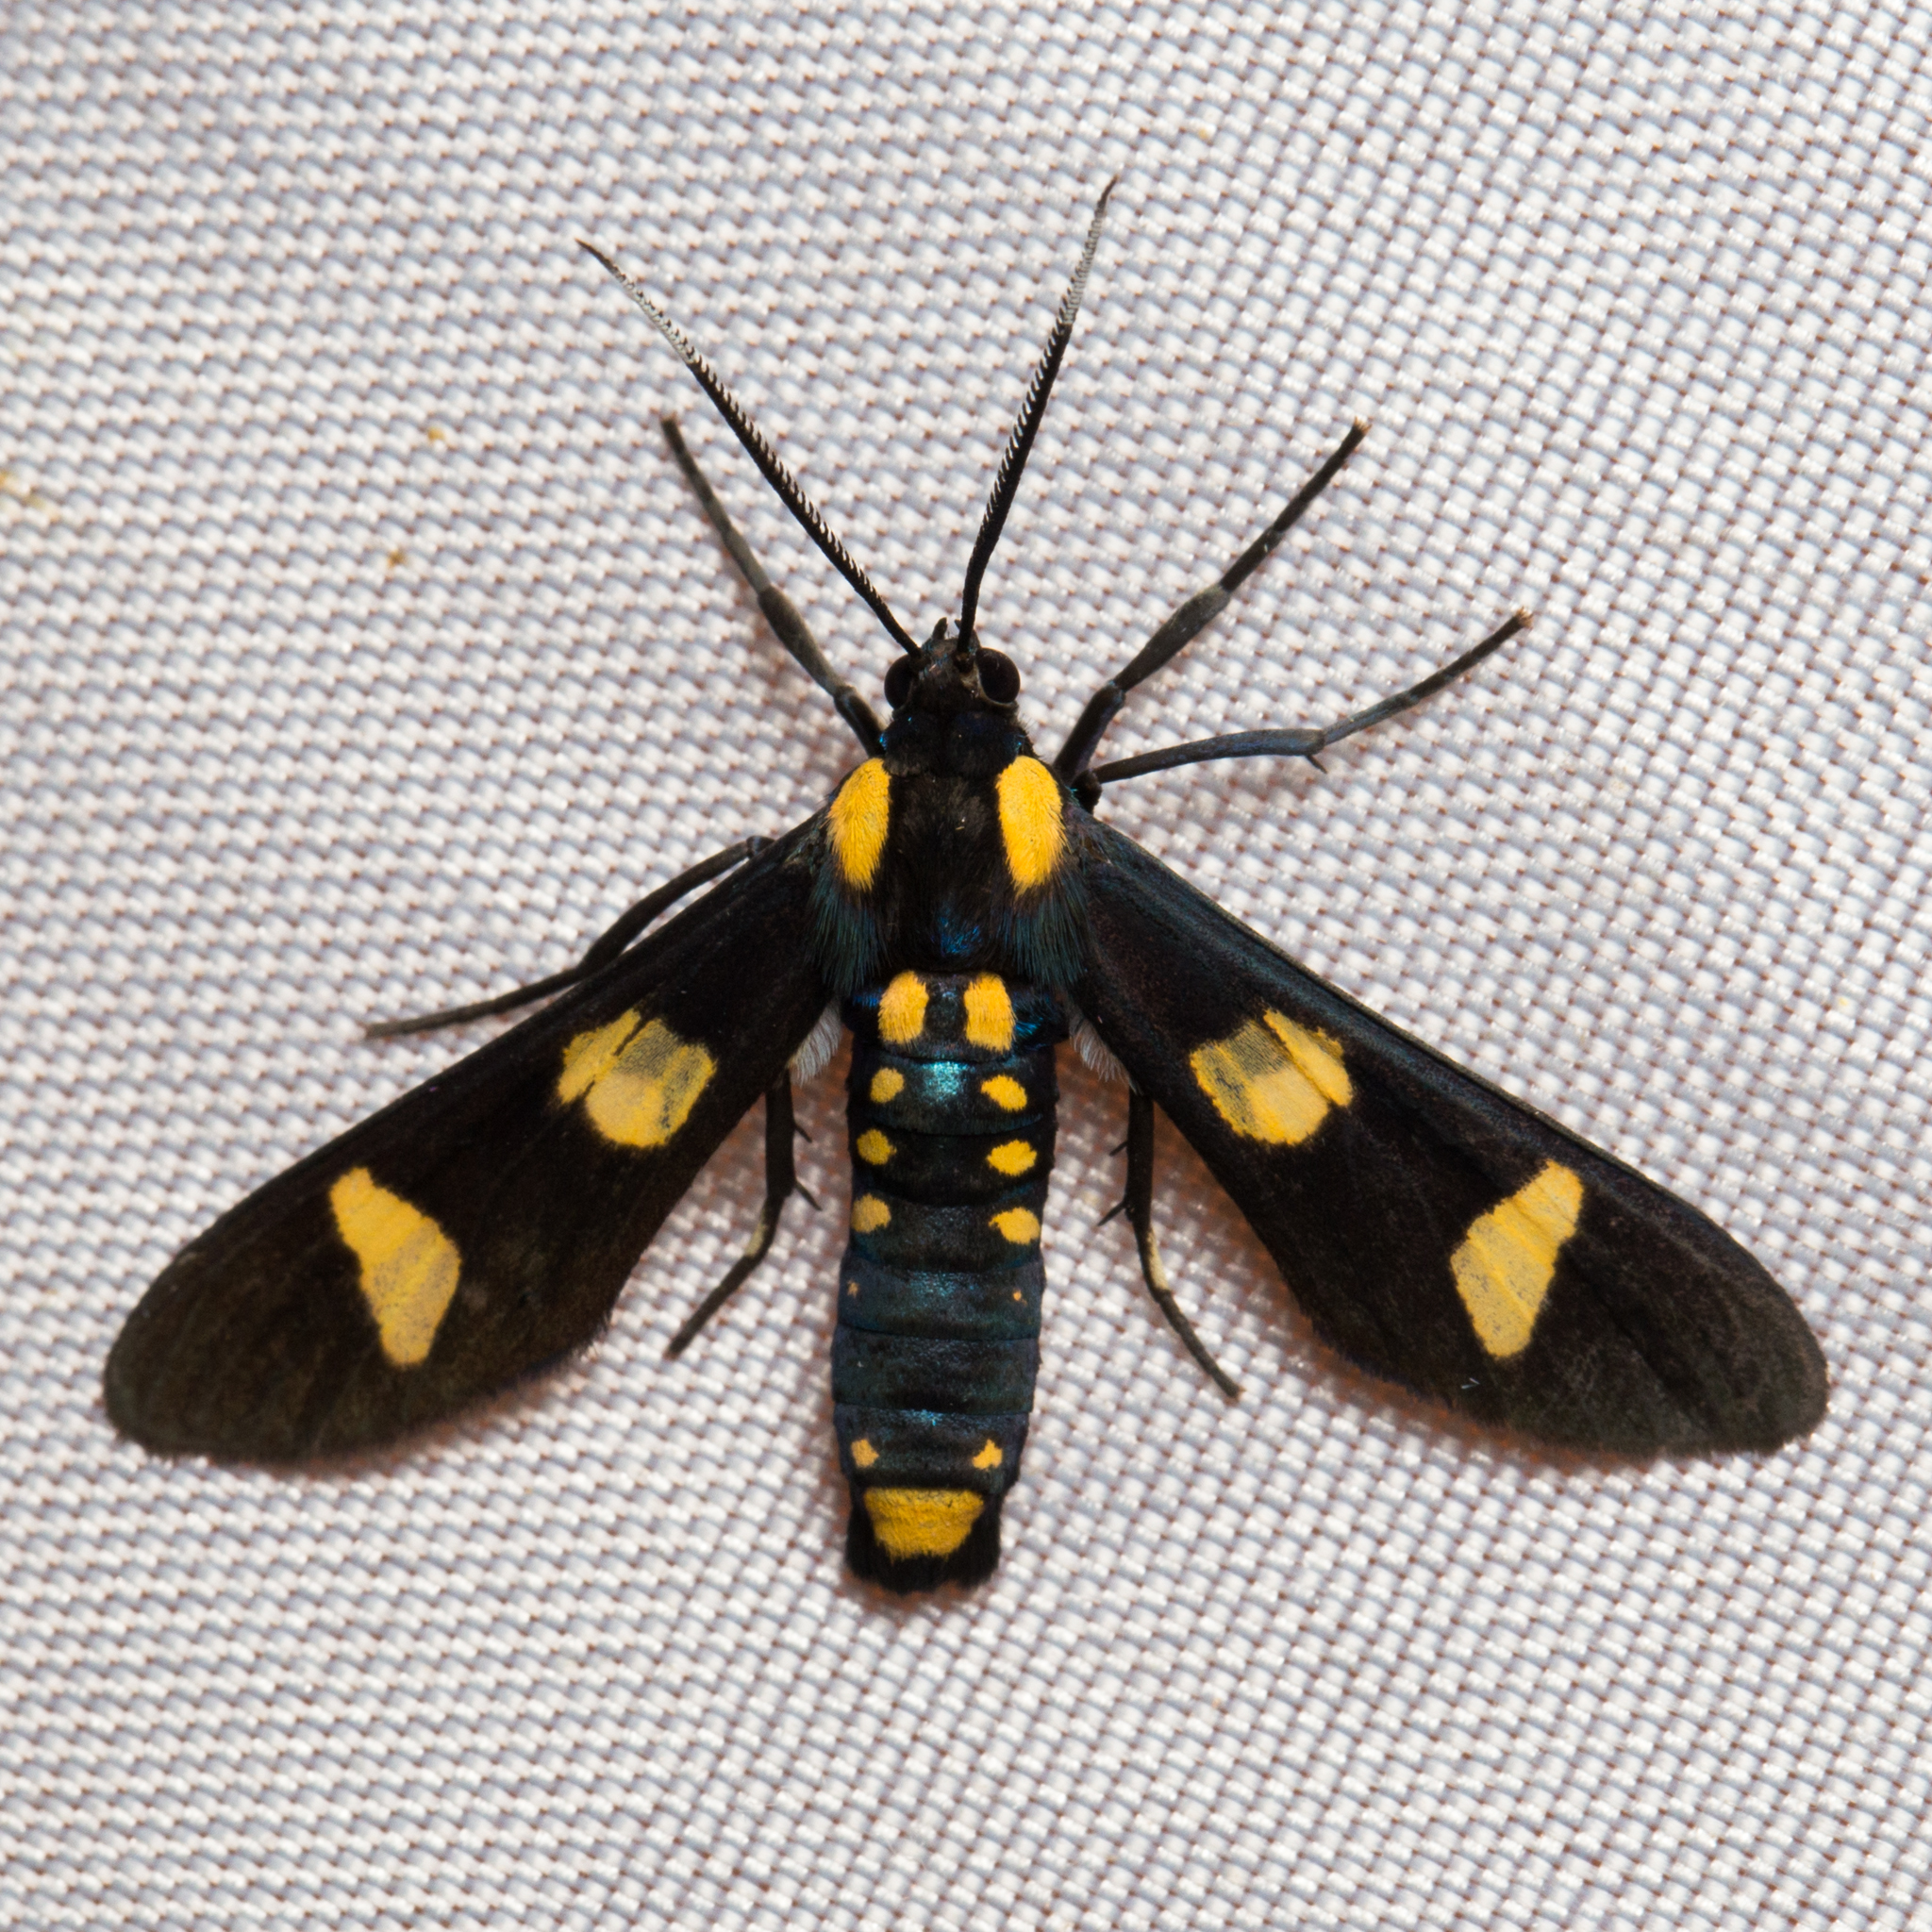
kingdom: Animalia
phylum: Arthropoda
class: Insecta
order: Lepidoptera
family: Erebidae
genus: Phoenicoprocta
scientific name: Phoenicoprocta hampsonii
